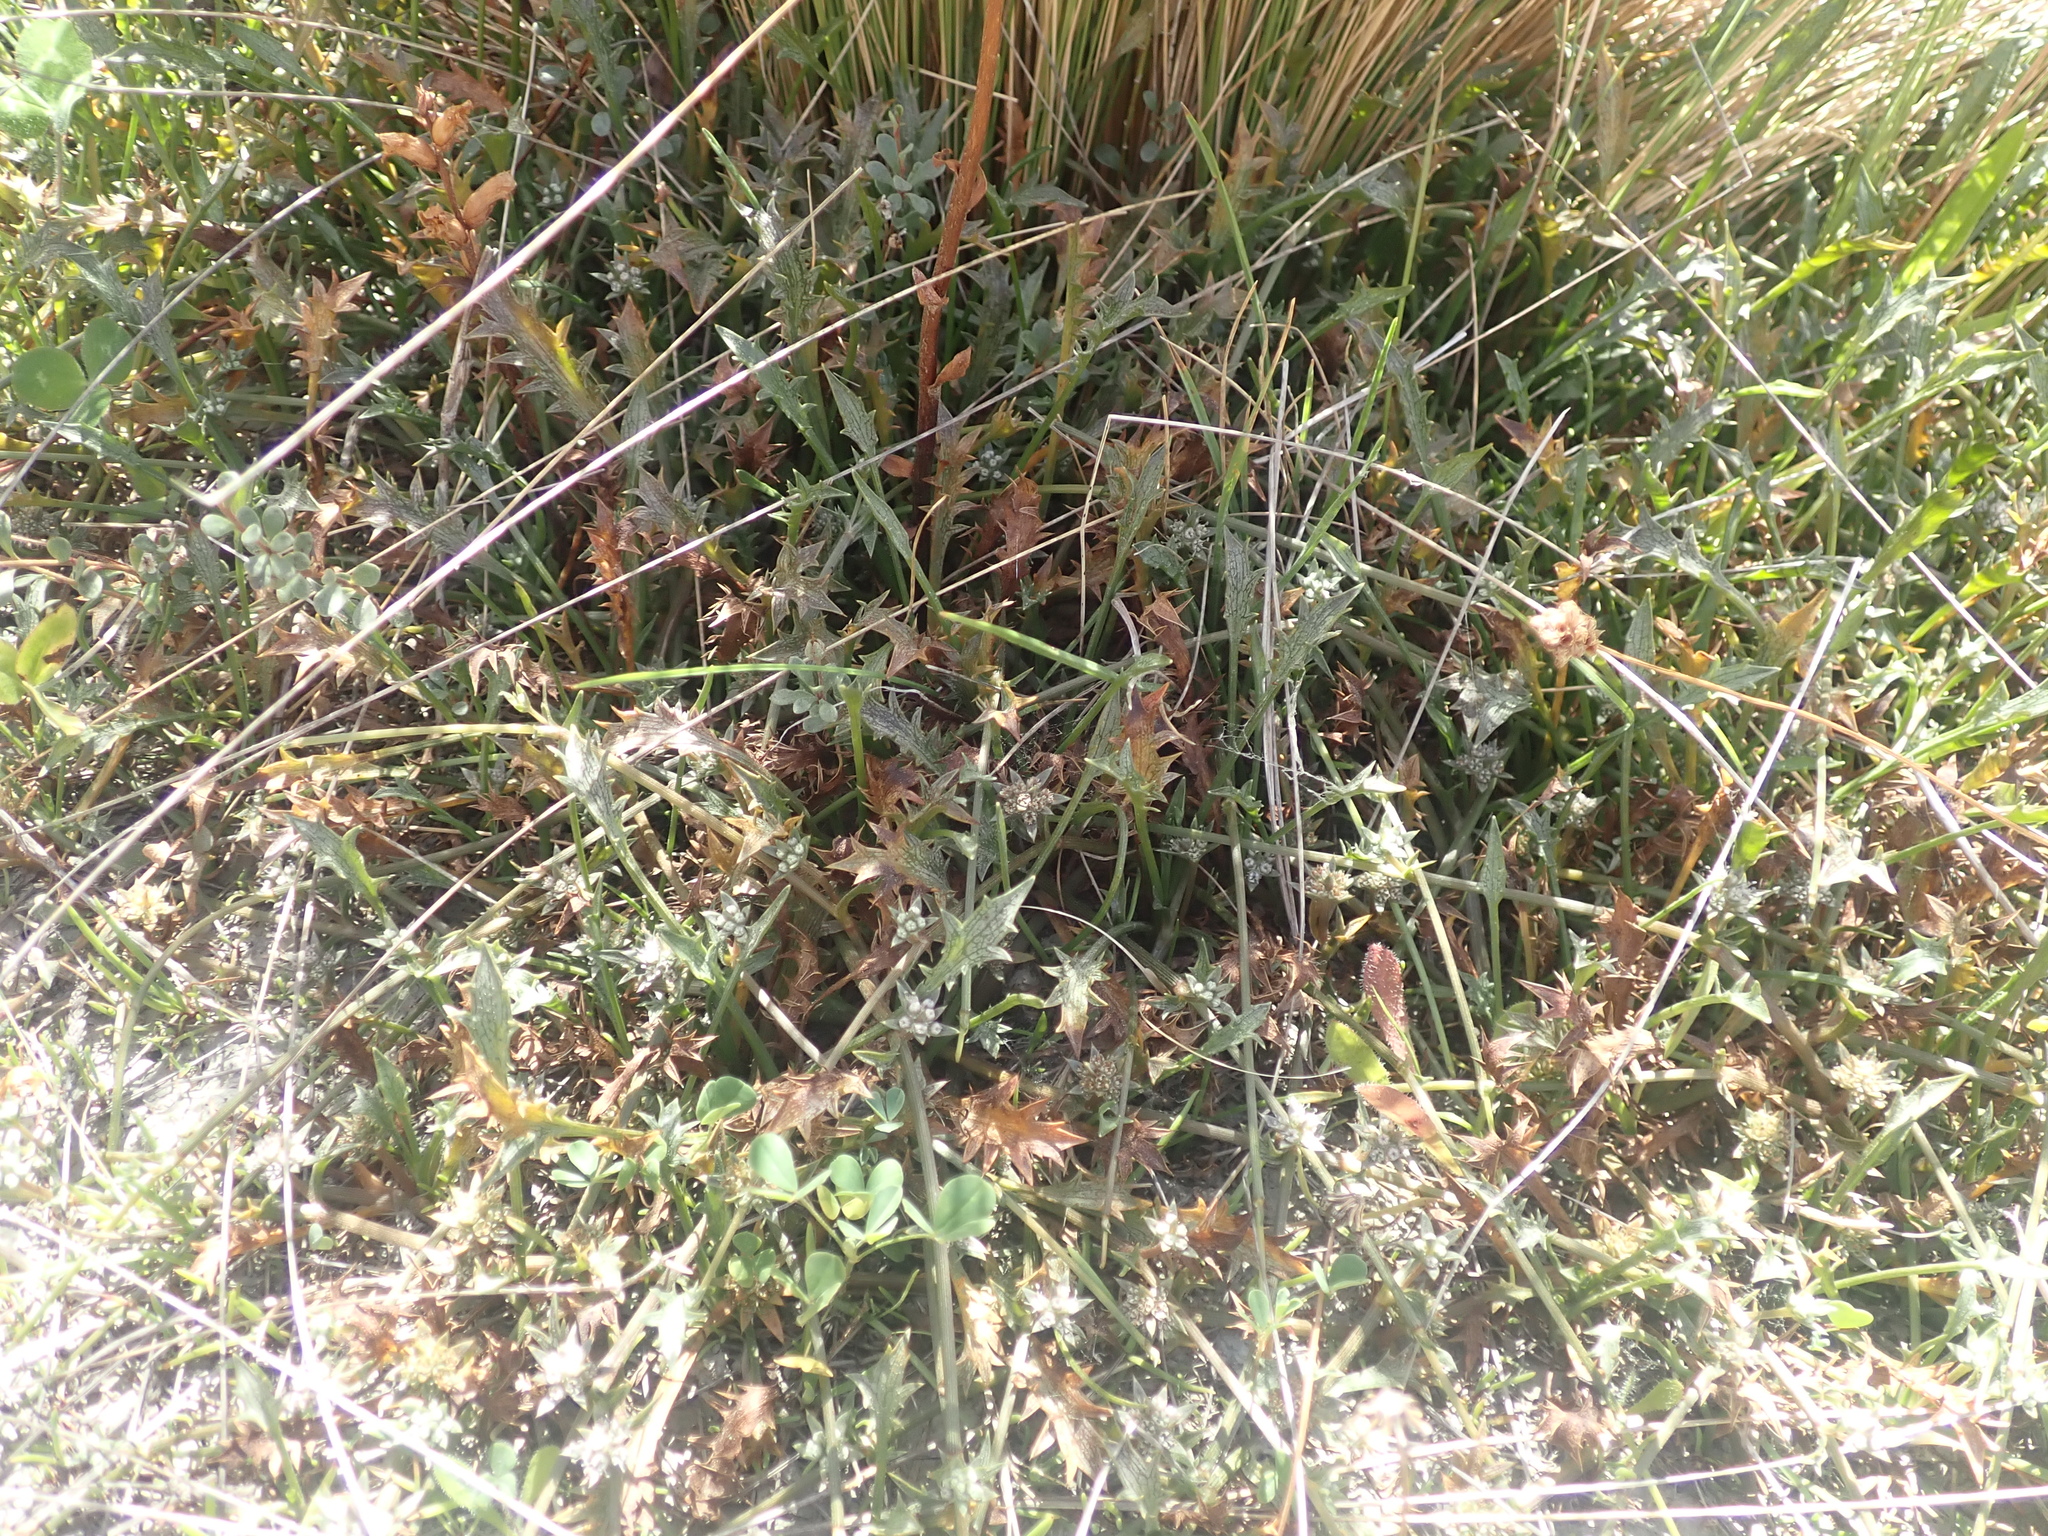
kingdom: Plantae
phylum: Tracheophyta
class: Magnoliopsida
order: Apiales
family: Apiaceae
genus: Eryngium
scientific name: Eryngium vesiculosum
